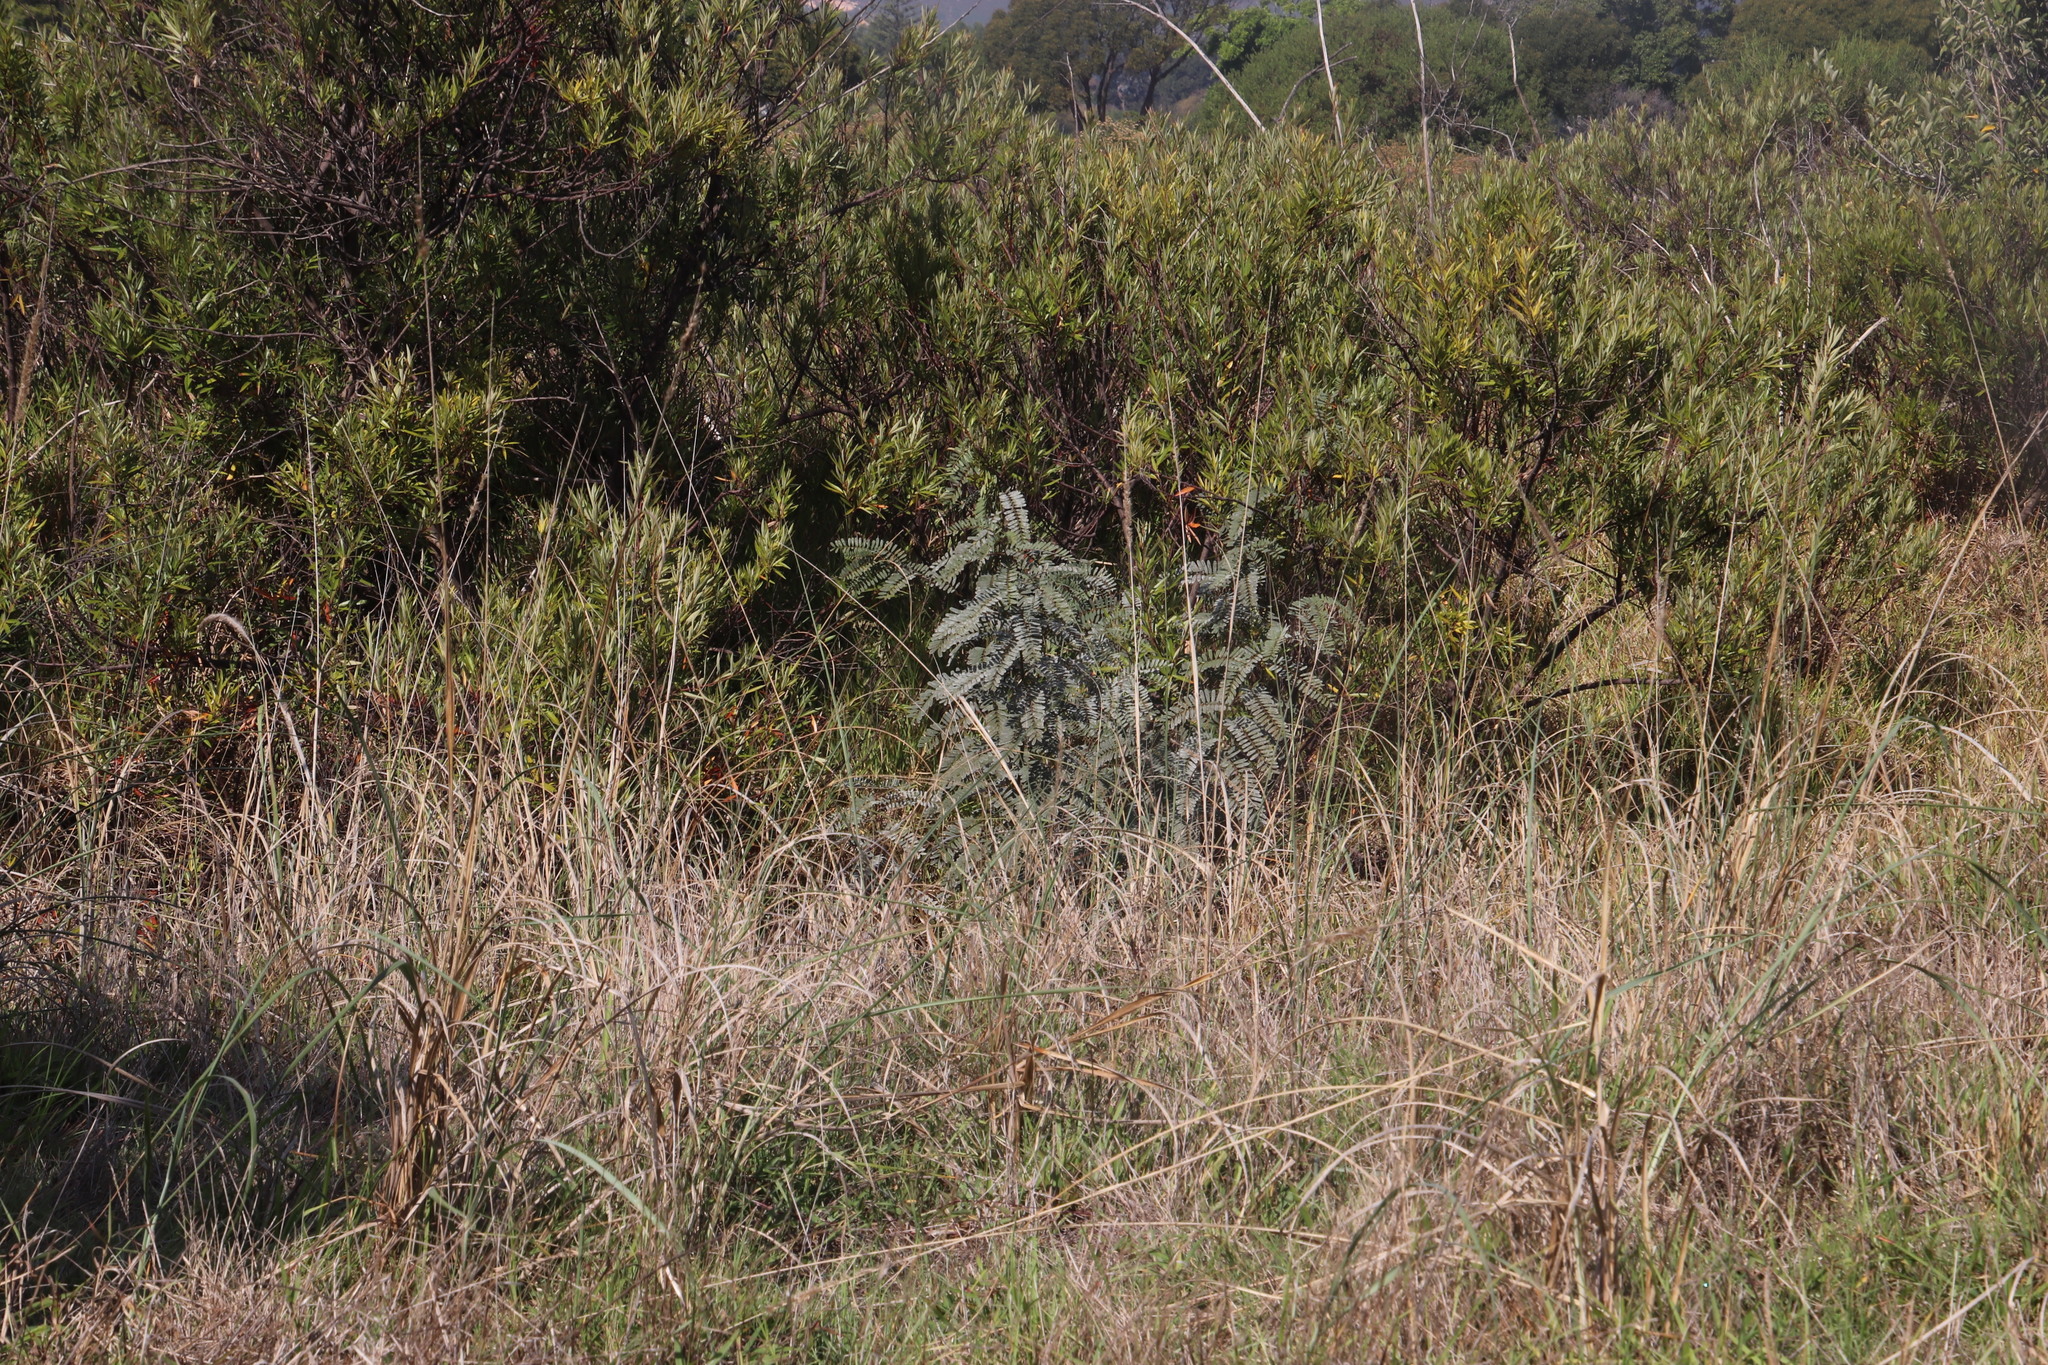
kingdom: Plantae
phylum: Tracheophyta
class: Magnoliopsida
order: Fabales
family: Fabaceae
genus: Sesbania
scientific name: Sesbania punicea
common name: Rattlebox
